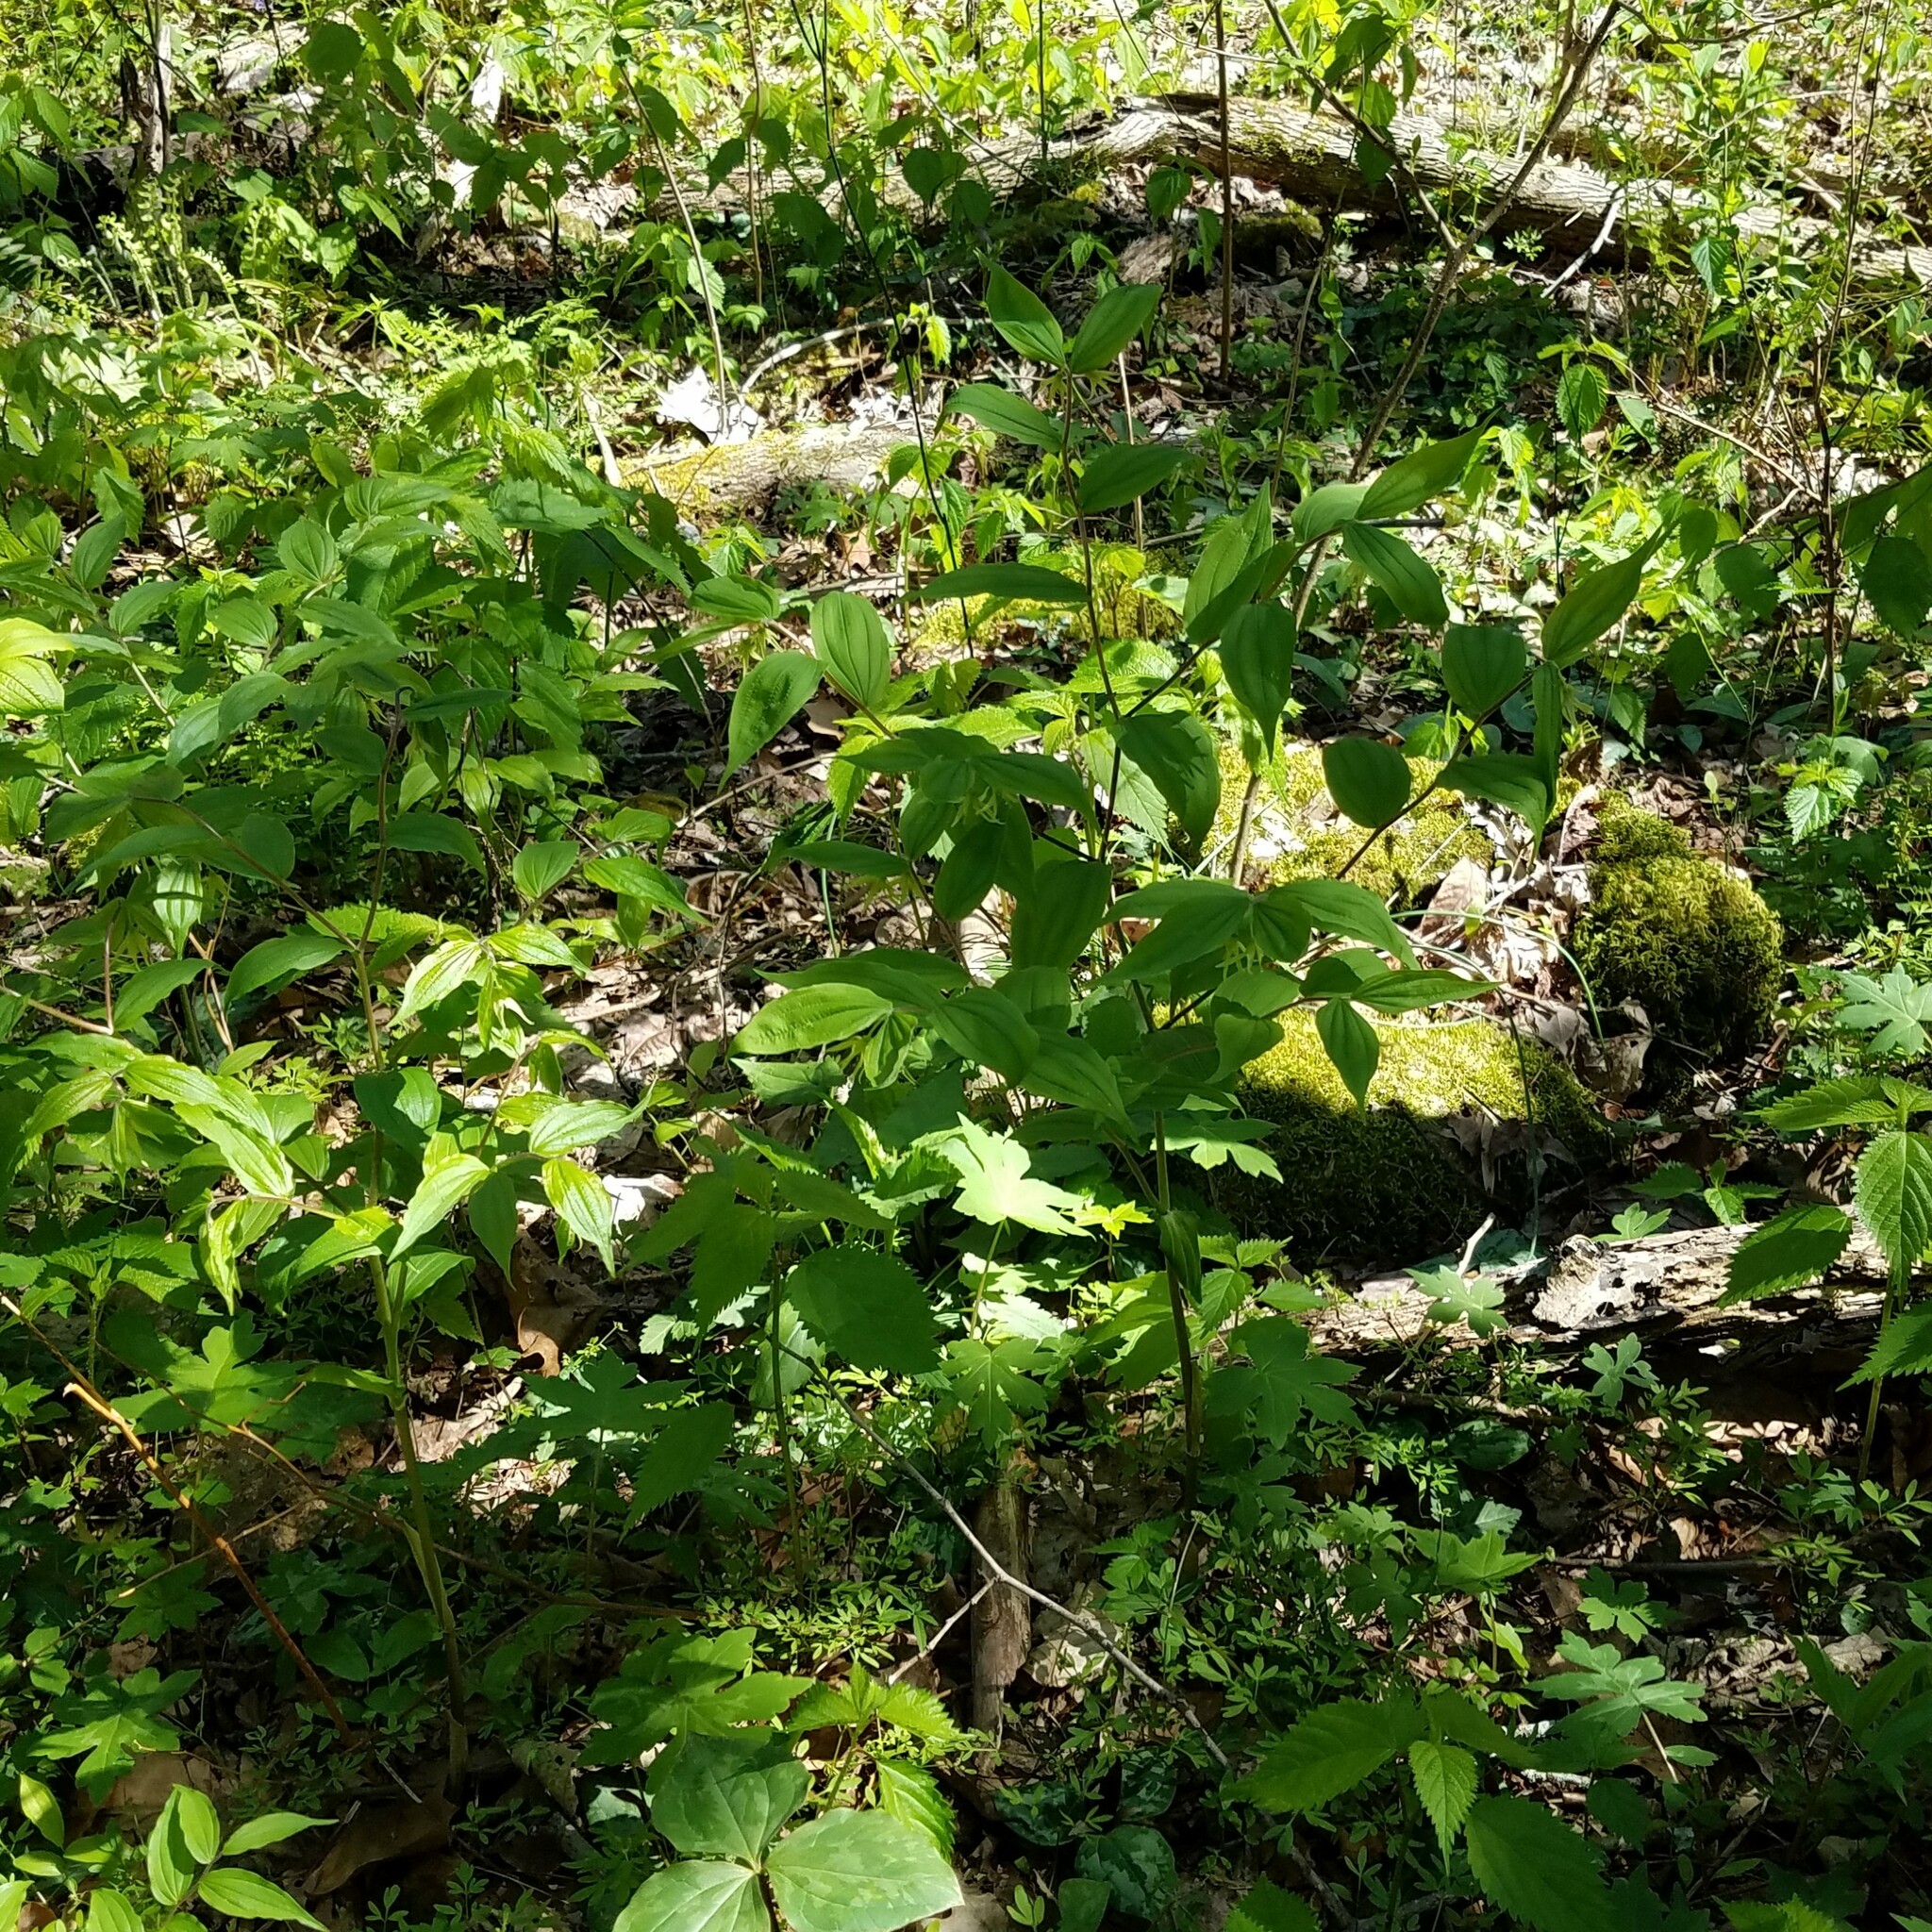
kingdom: Plantae
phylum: Tracheophyta
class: Liliopsida
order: Liliales
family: Liliaceae
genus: Prosartes
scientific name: Prosartes lanuginosa
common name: Hairy mandarin
